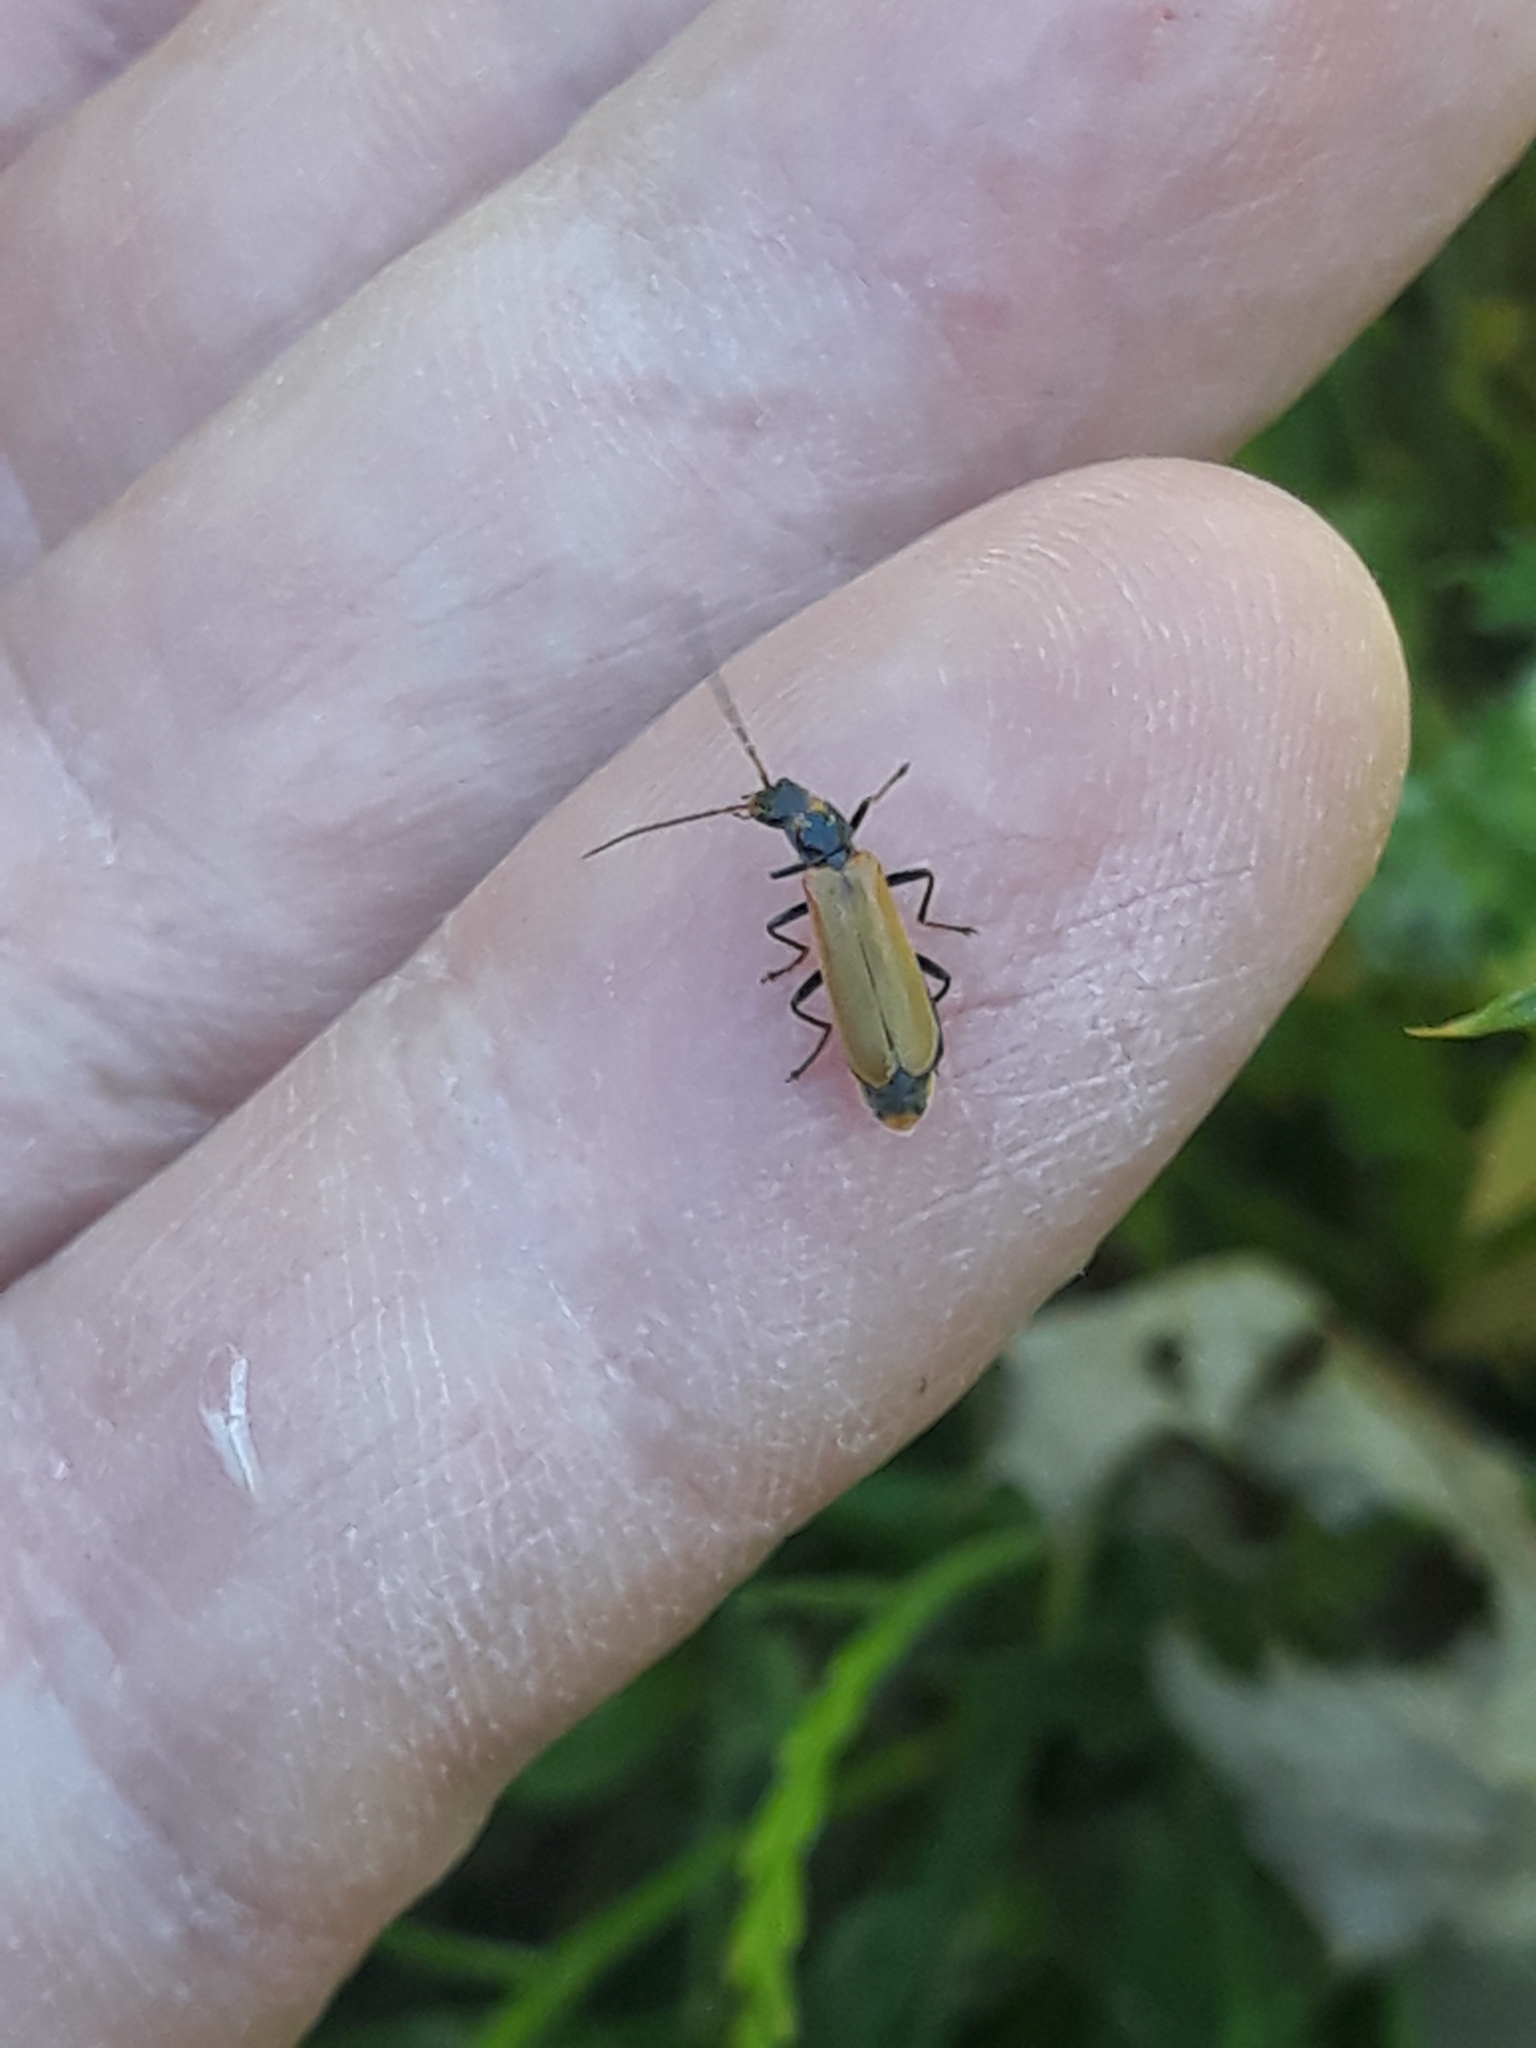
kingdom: Animalia
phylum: Arthropoda
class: Insecta
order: Coleoptera
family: Cantharidae
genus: Rhagonycha
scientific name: Rhagonycha nigripes
